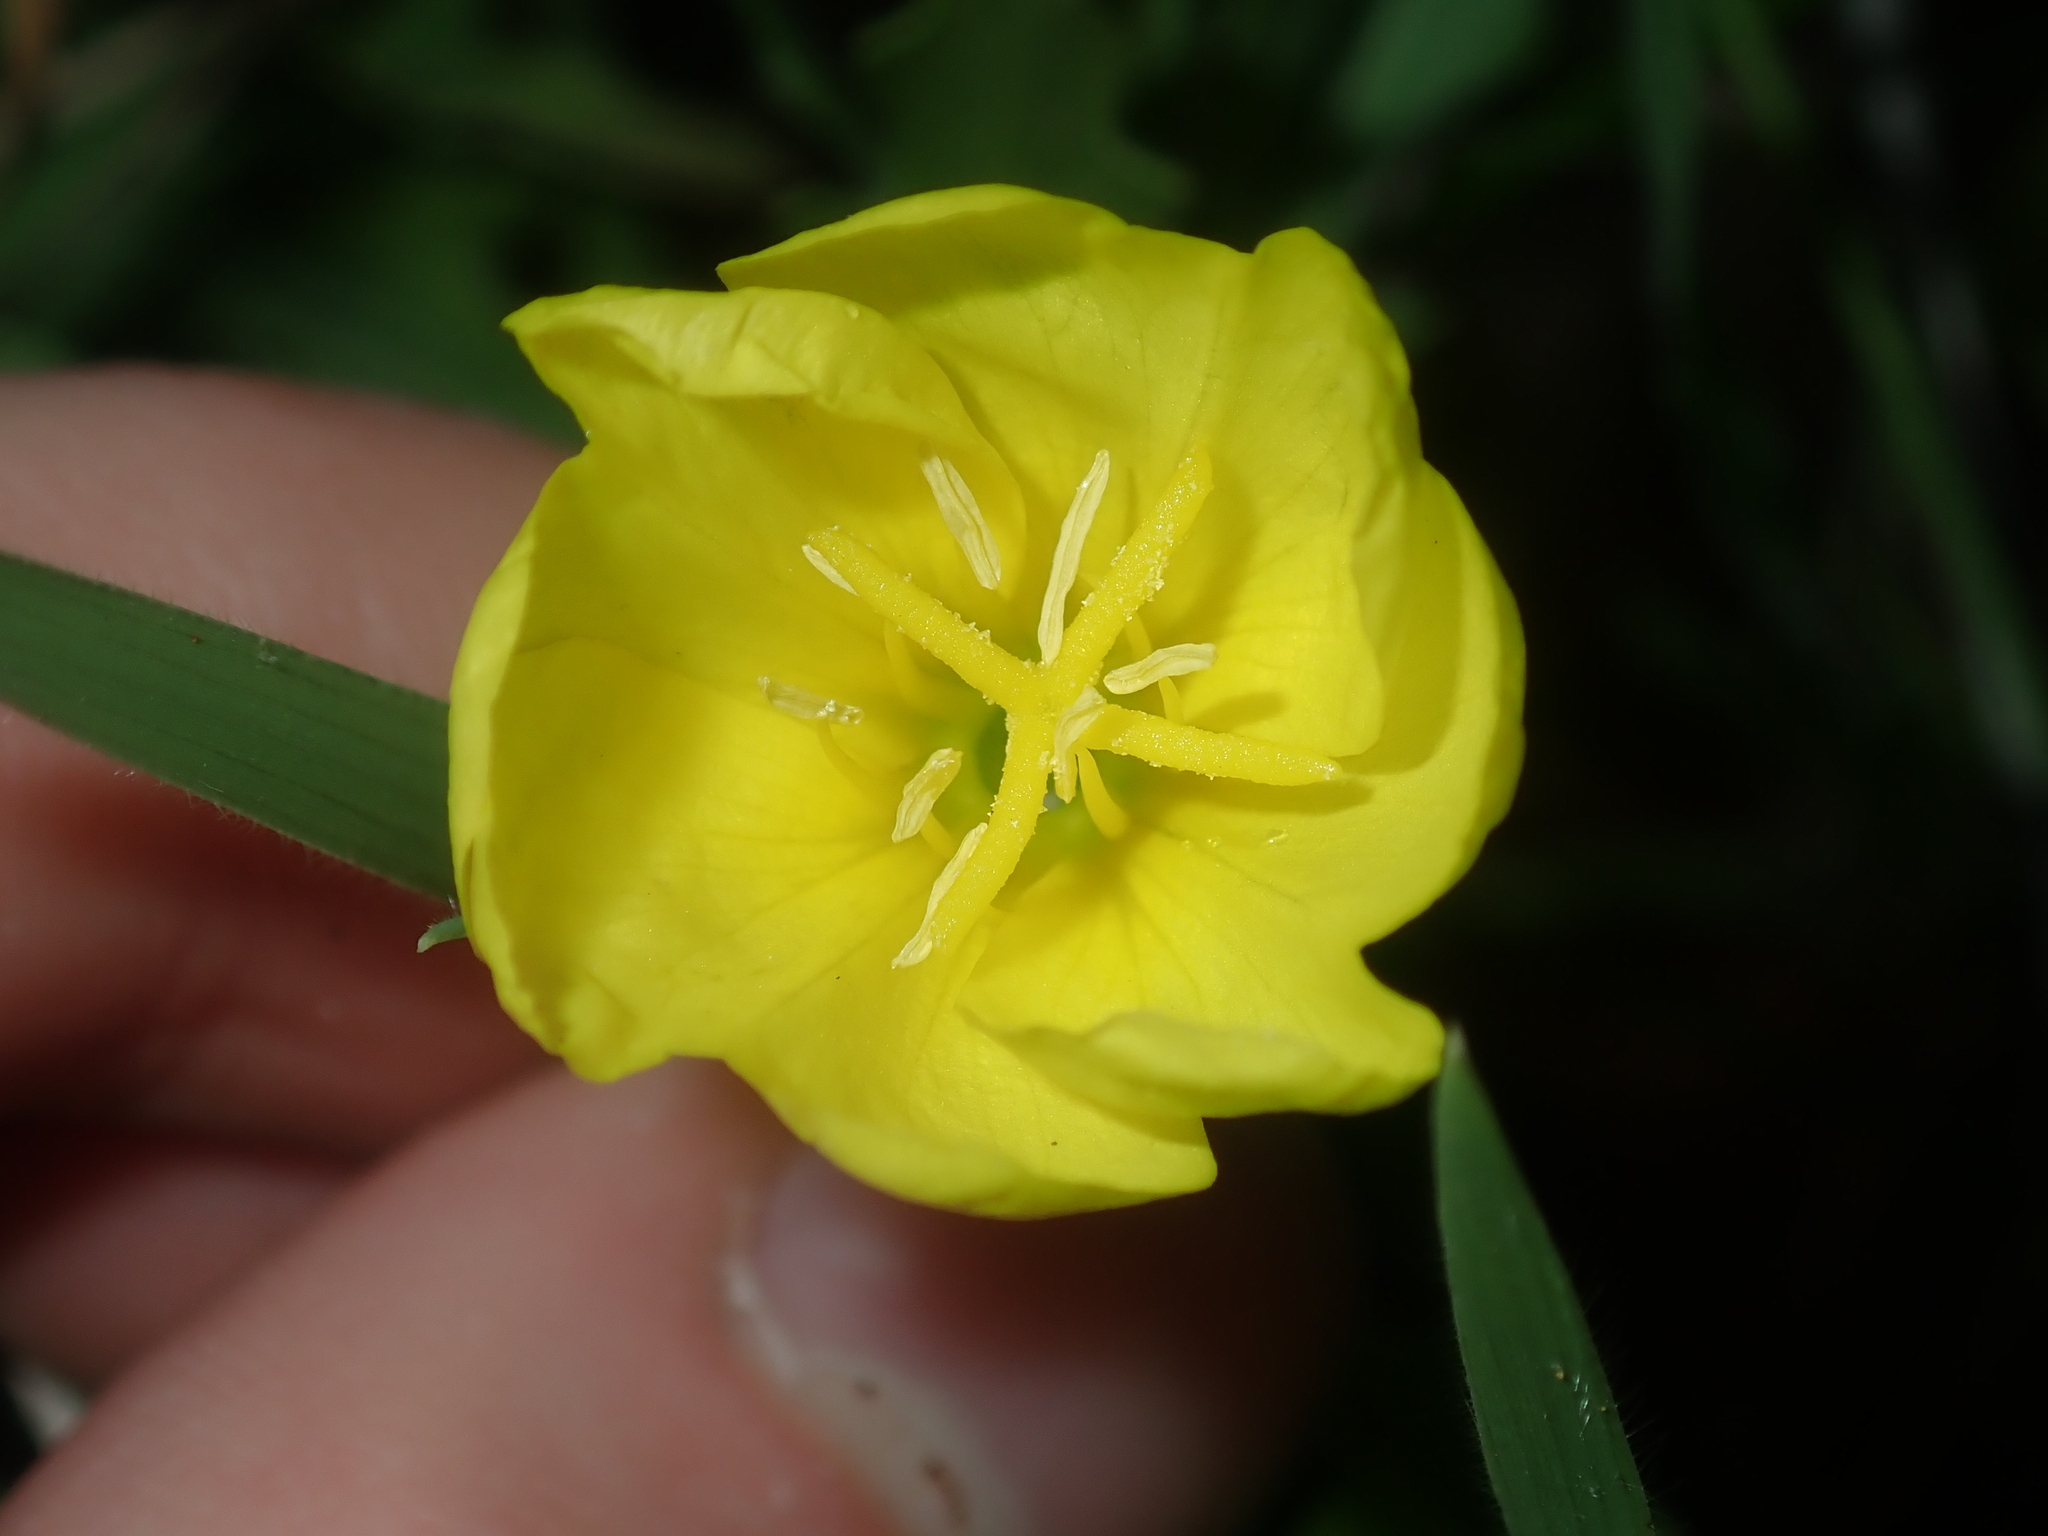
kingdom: Plantae
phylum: Tracheophyta
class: Magnoliopsida
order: Myrtales
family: Onagraceae
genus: Oenothera
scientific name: Oenothera laciniata
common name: Cut-leaved evening-primrose
